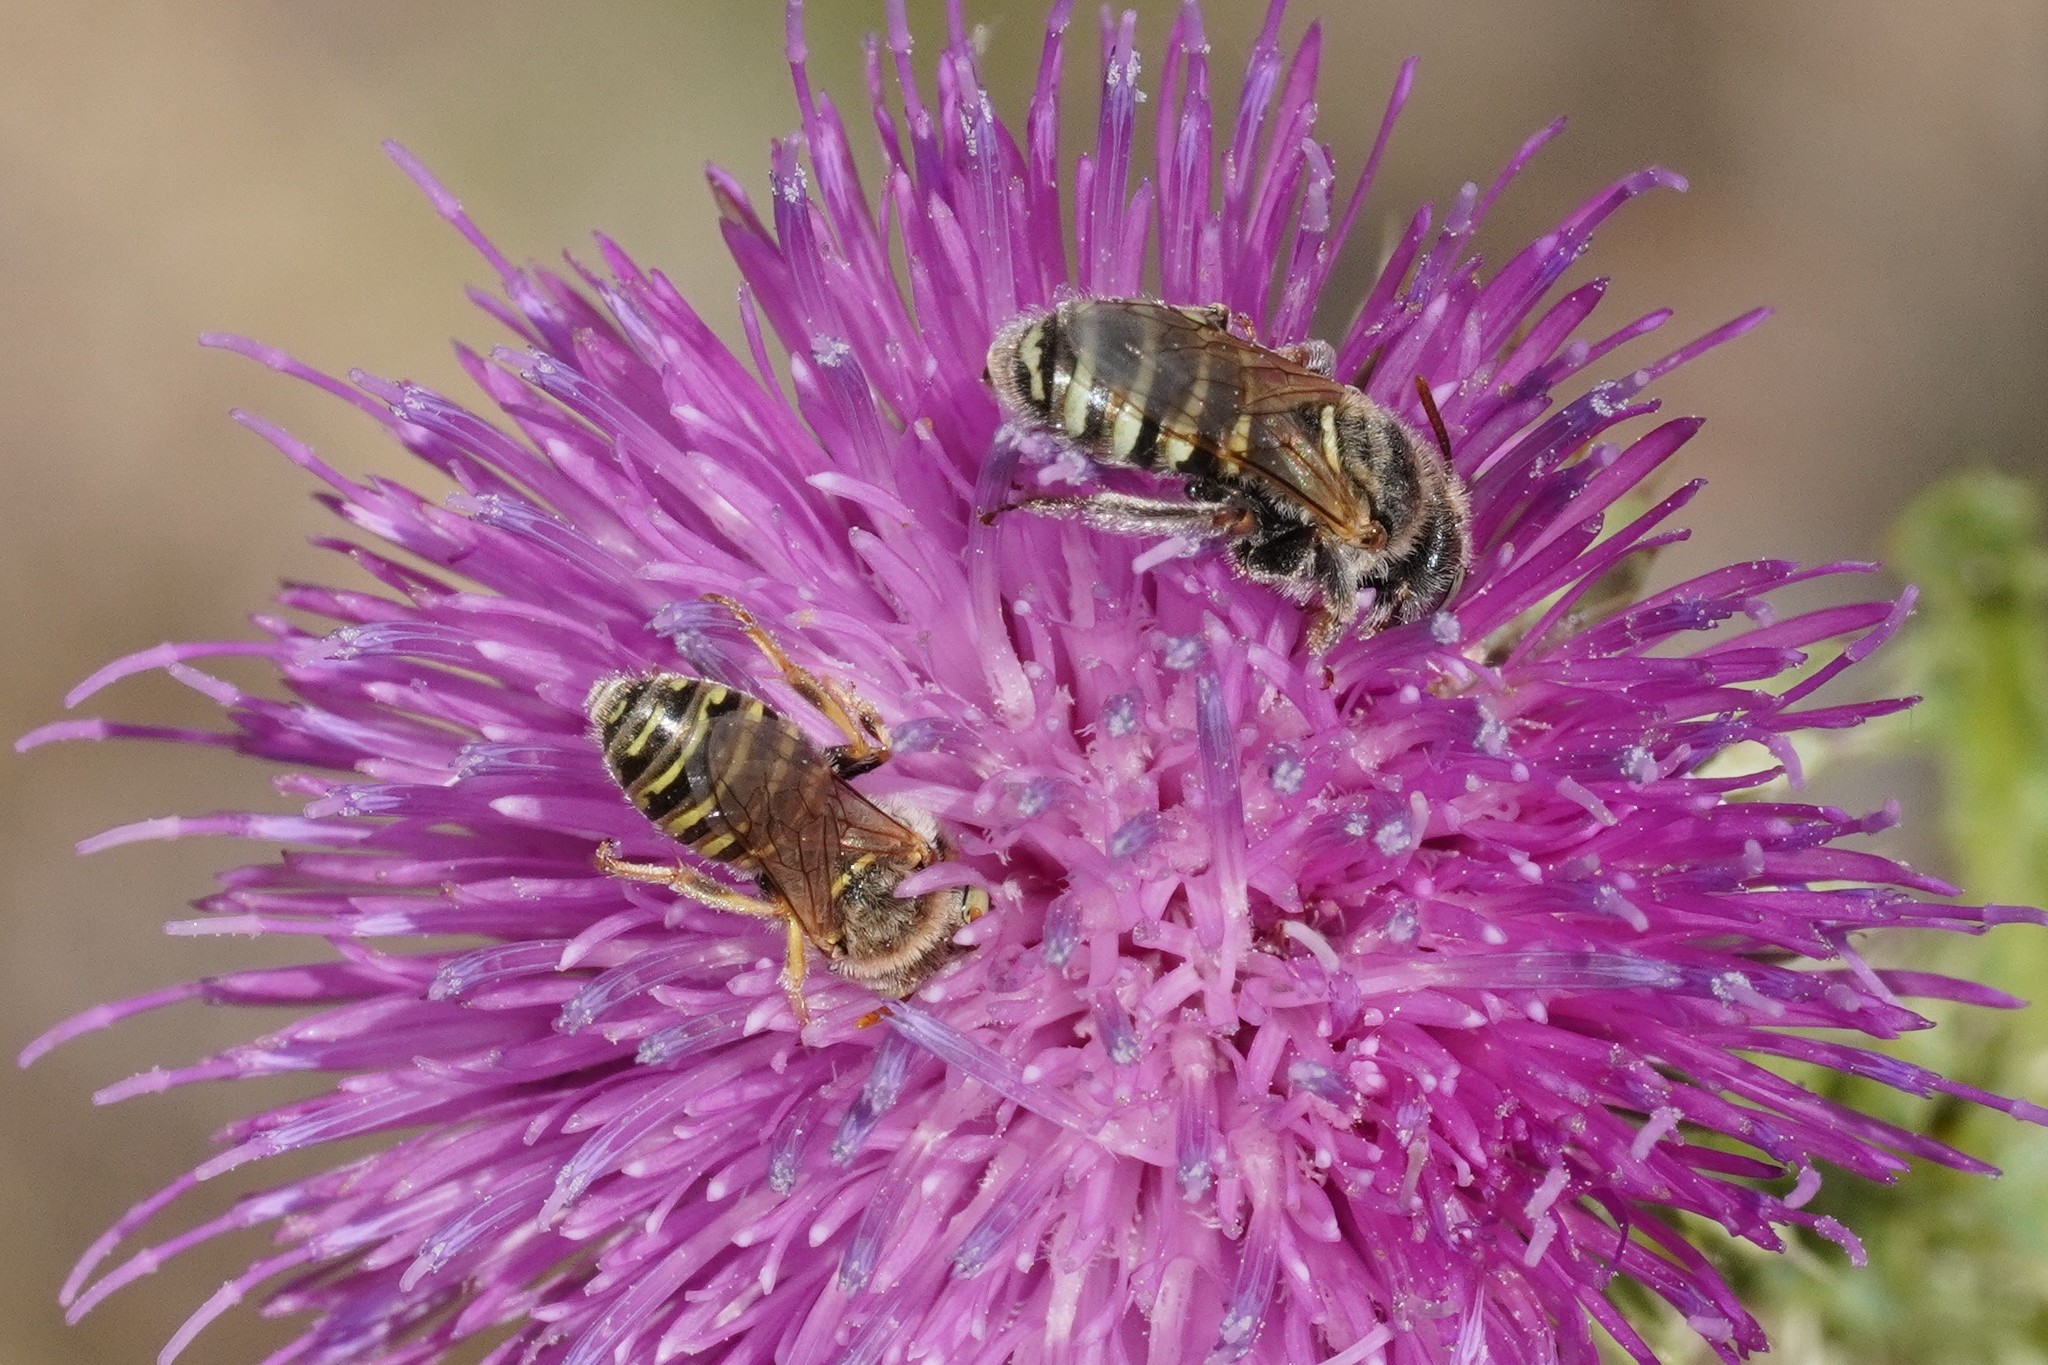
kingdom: Animalia
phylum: Arthropoda
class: Insecta
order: Hymenoptera
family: Andrenidae
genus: Camptopoeum
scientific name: Camptopoeum friesei
